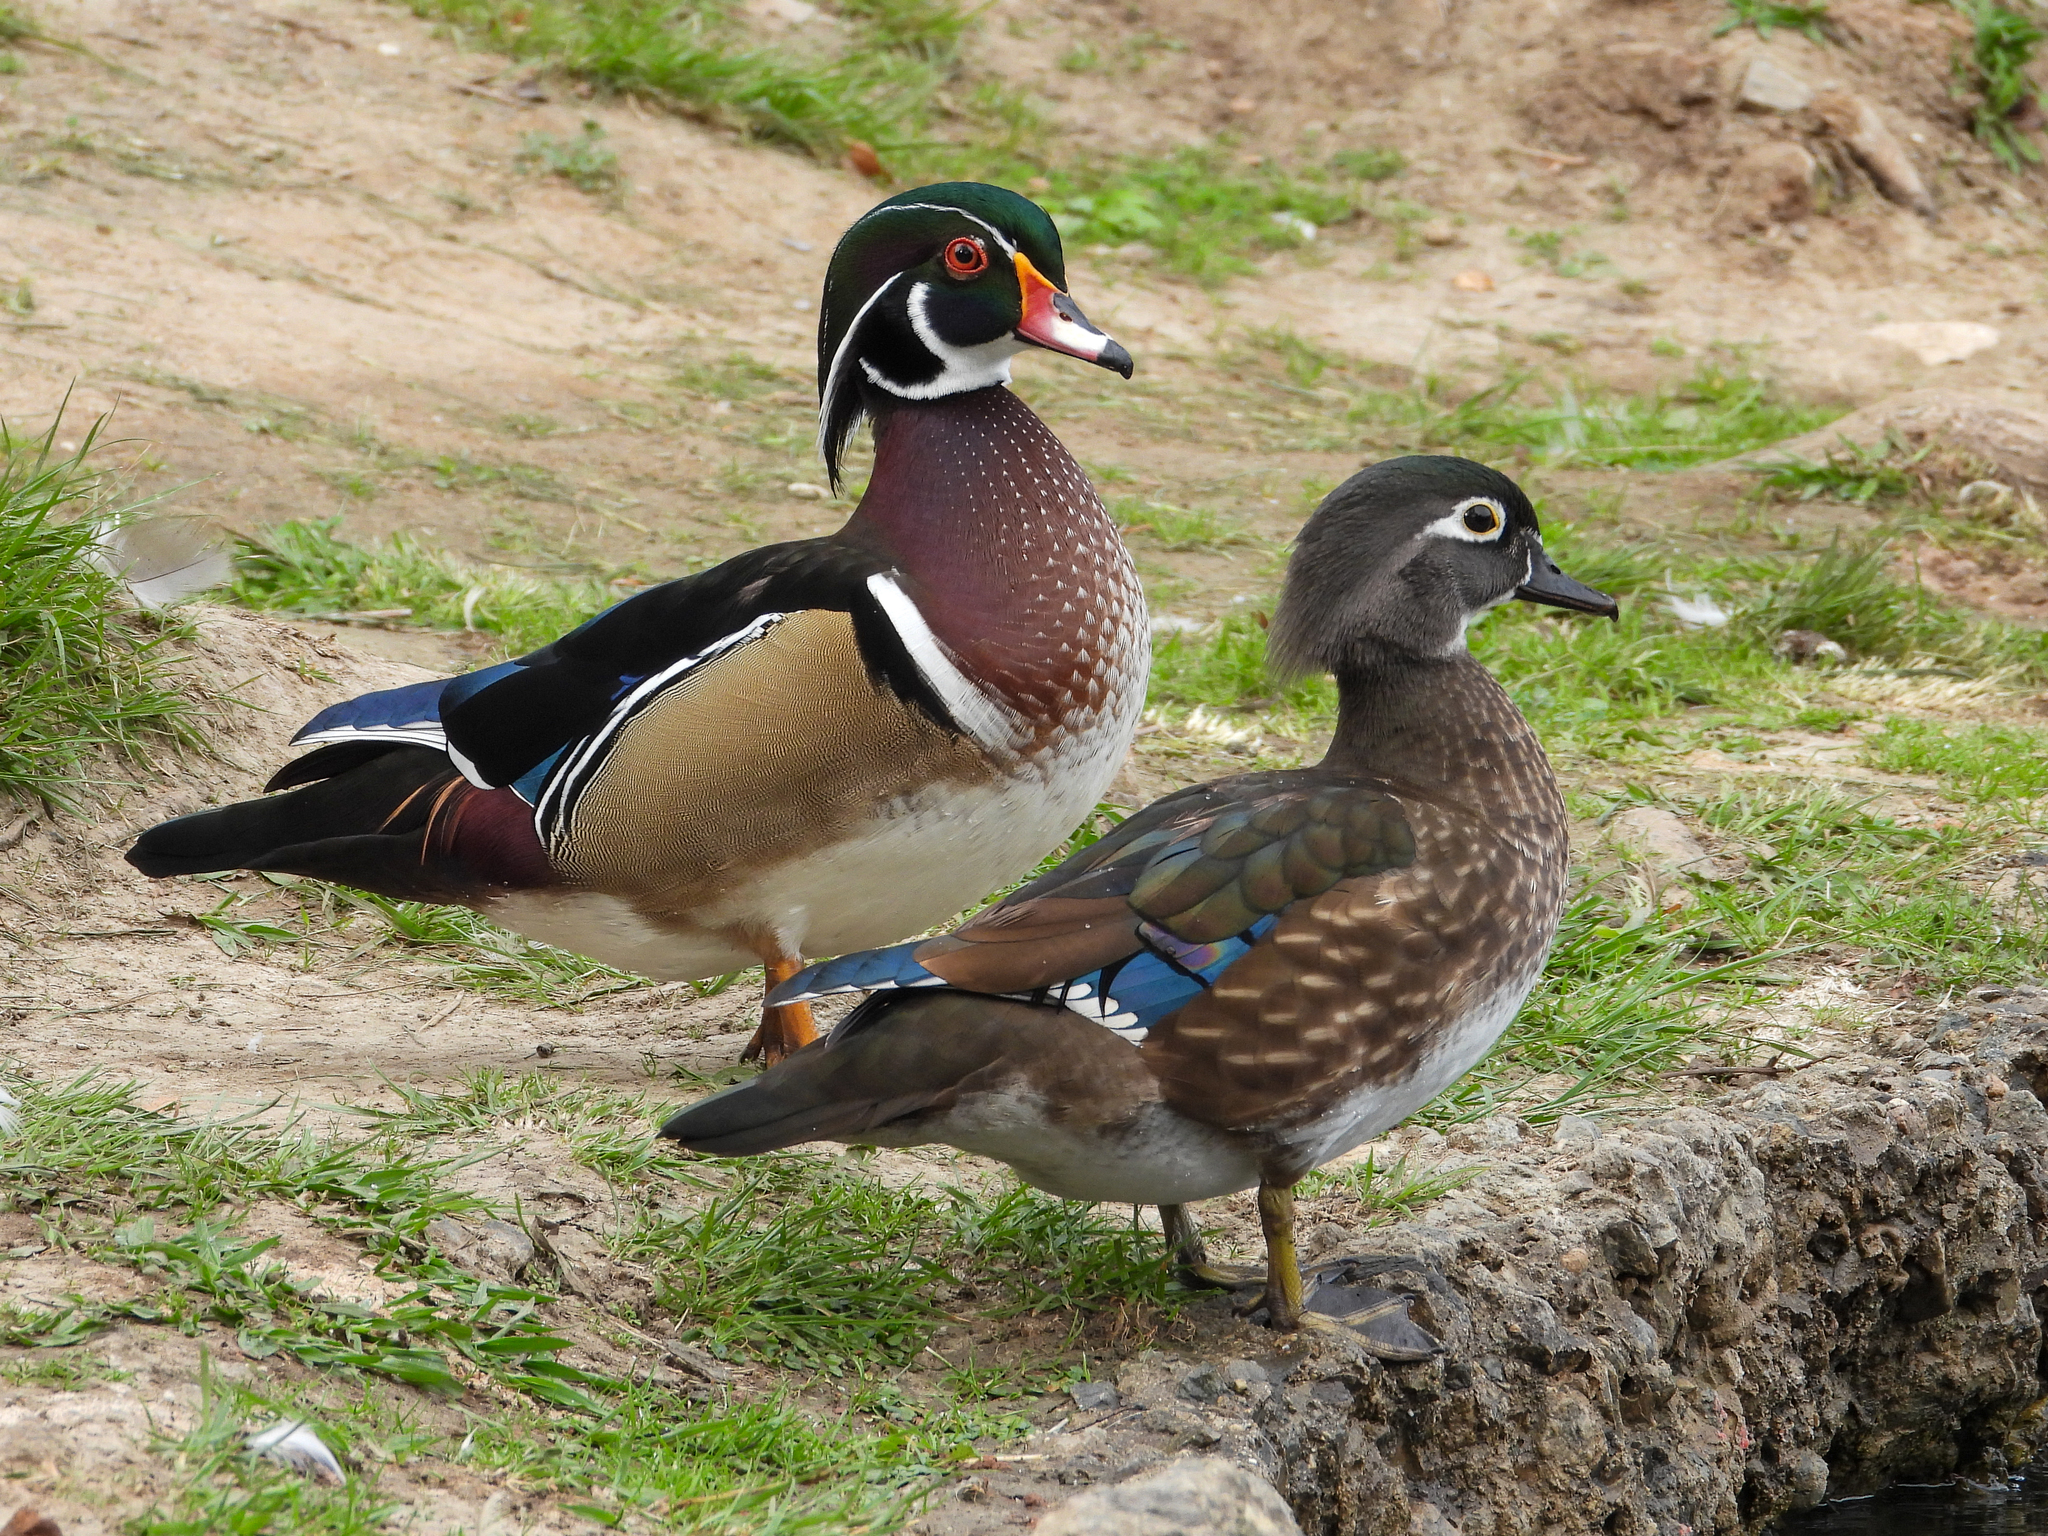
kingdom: Animalia
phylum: Chordata
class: Aves
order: Anseriformes
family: Anatidae
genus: Aix
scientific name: Aix sponsa
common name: Wood duck
